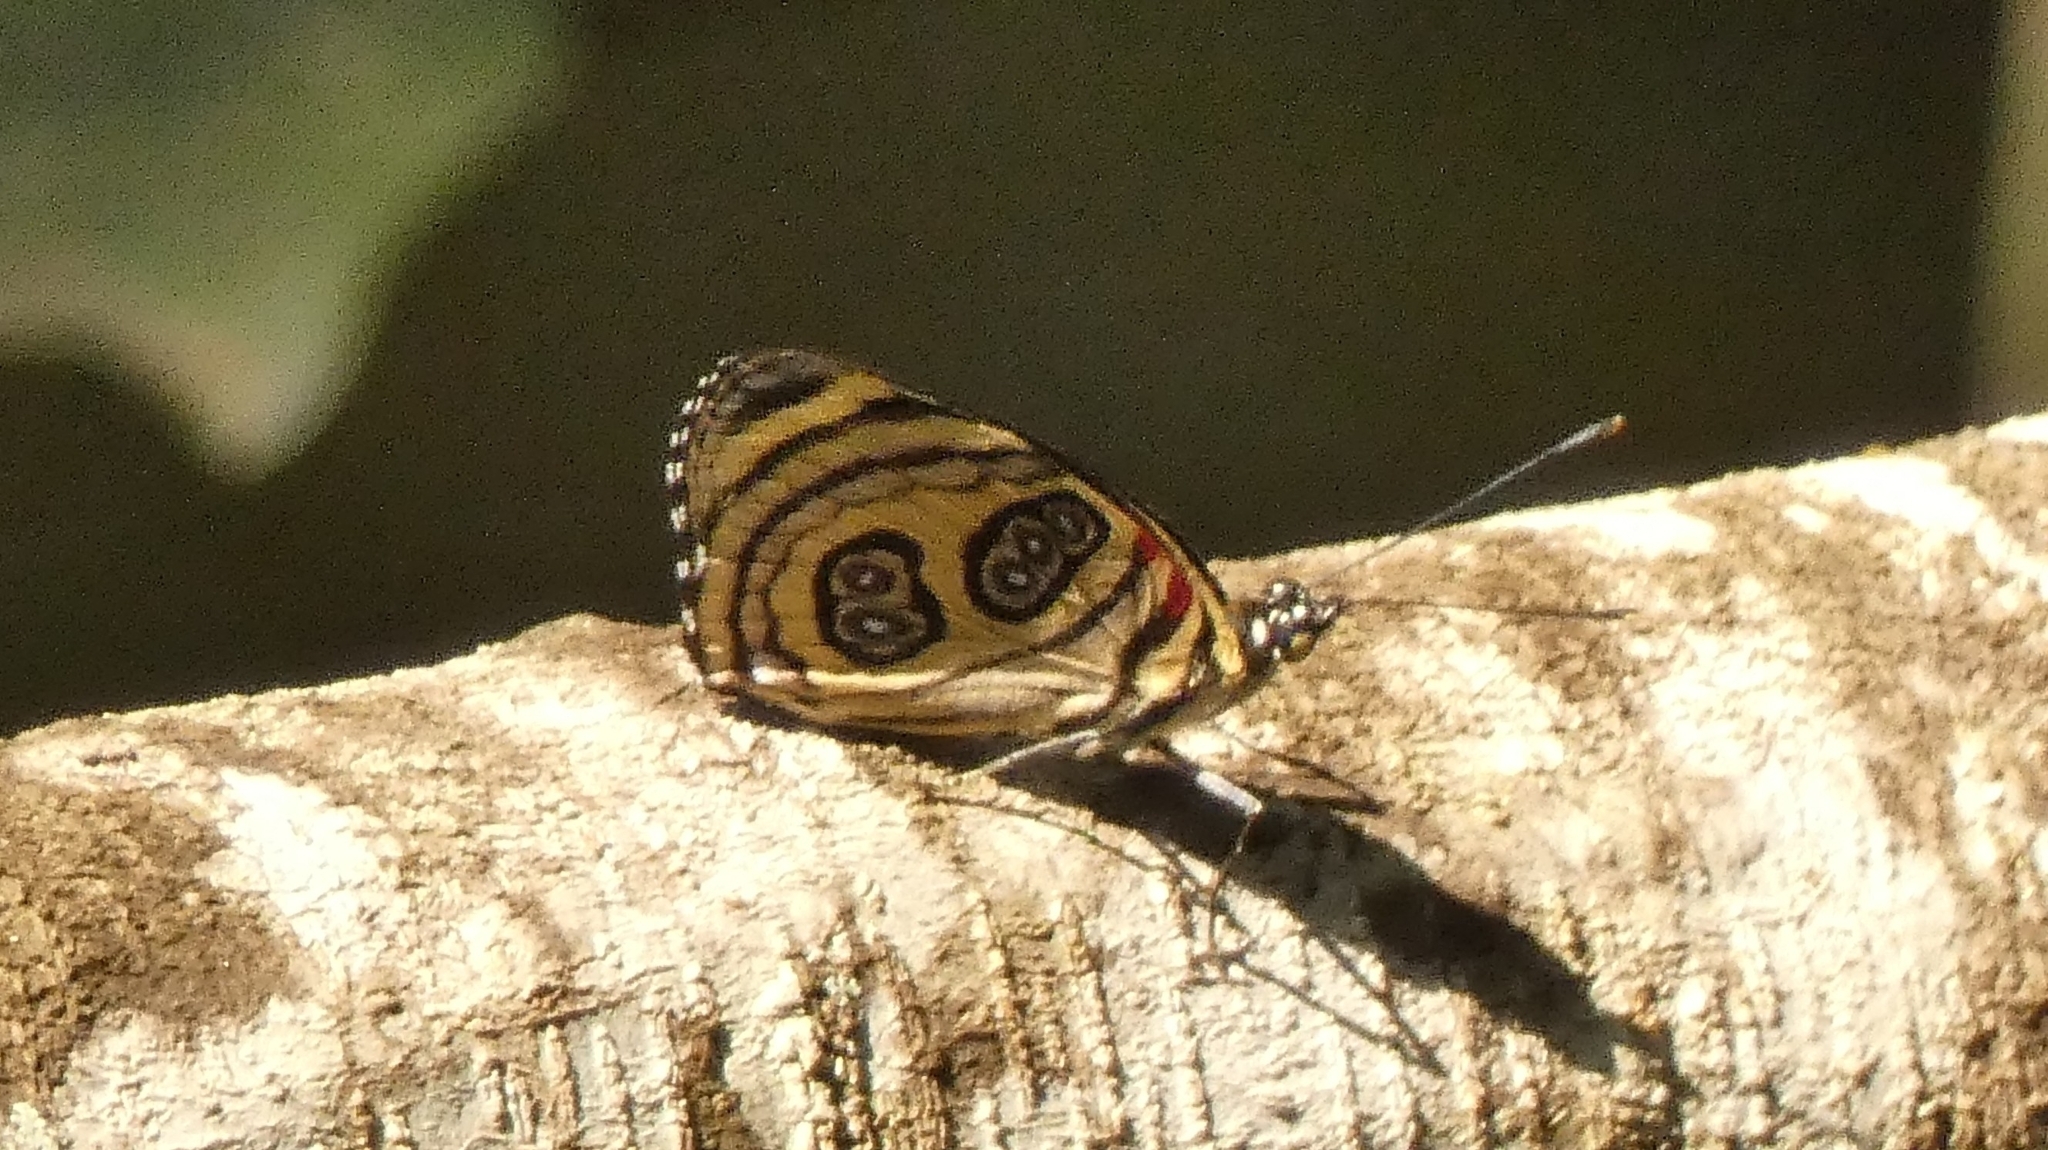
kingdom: Animalia
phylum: Arthropoda
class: Insecta
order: Lepidoptera
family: Nymphalidae
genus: Catagramma
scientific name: Catagramma pygas
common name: Godart's numberwing
